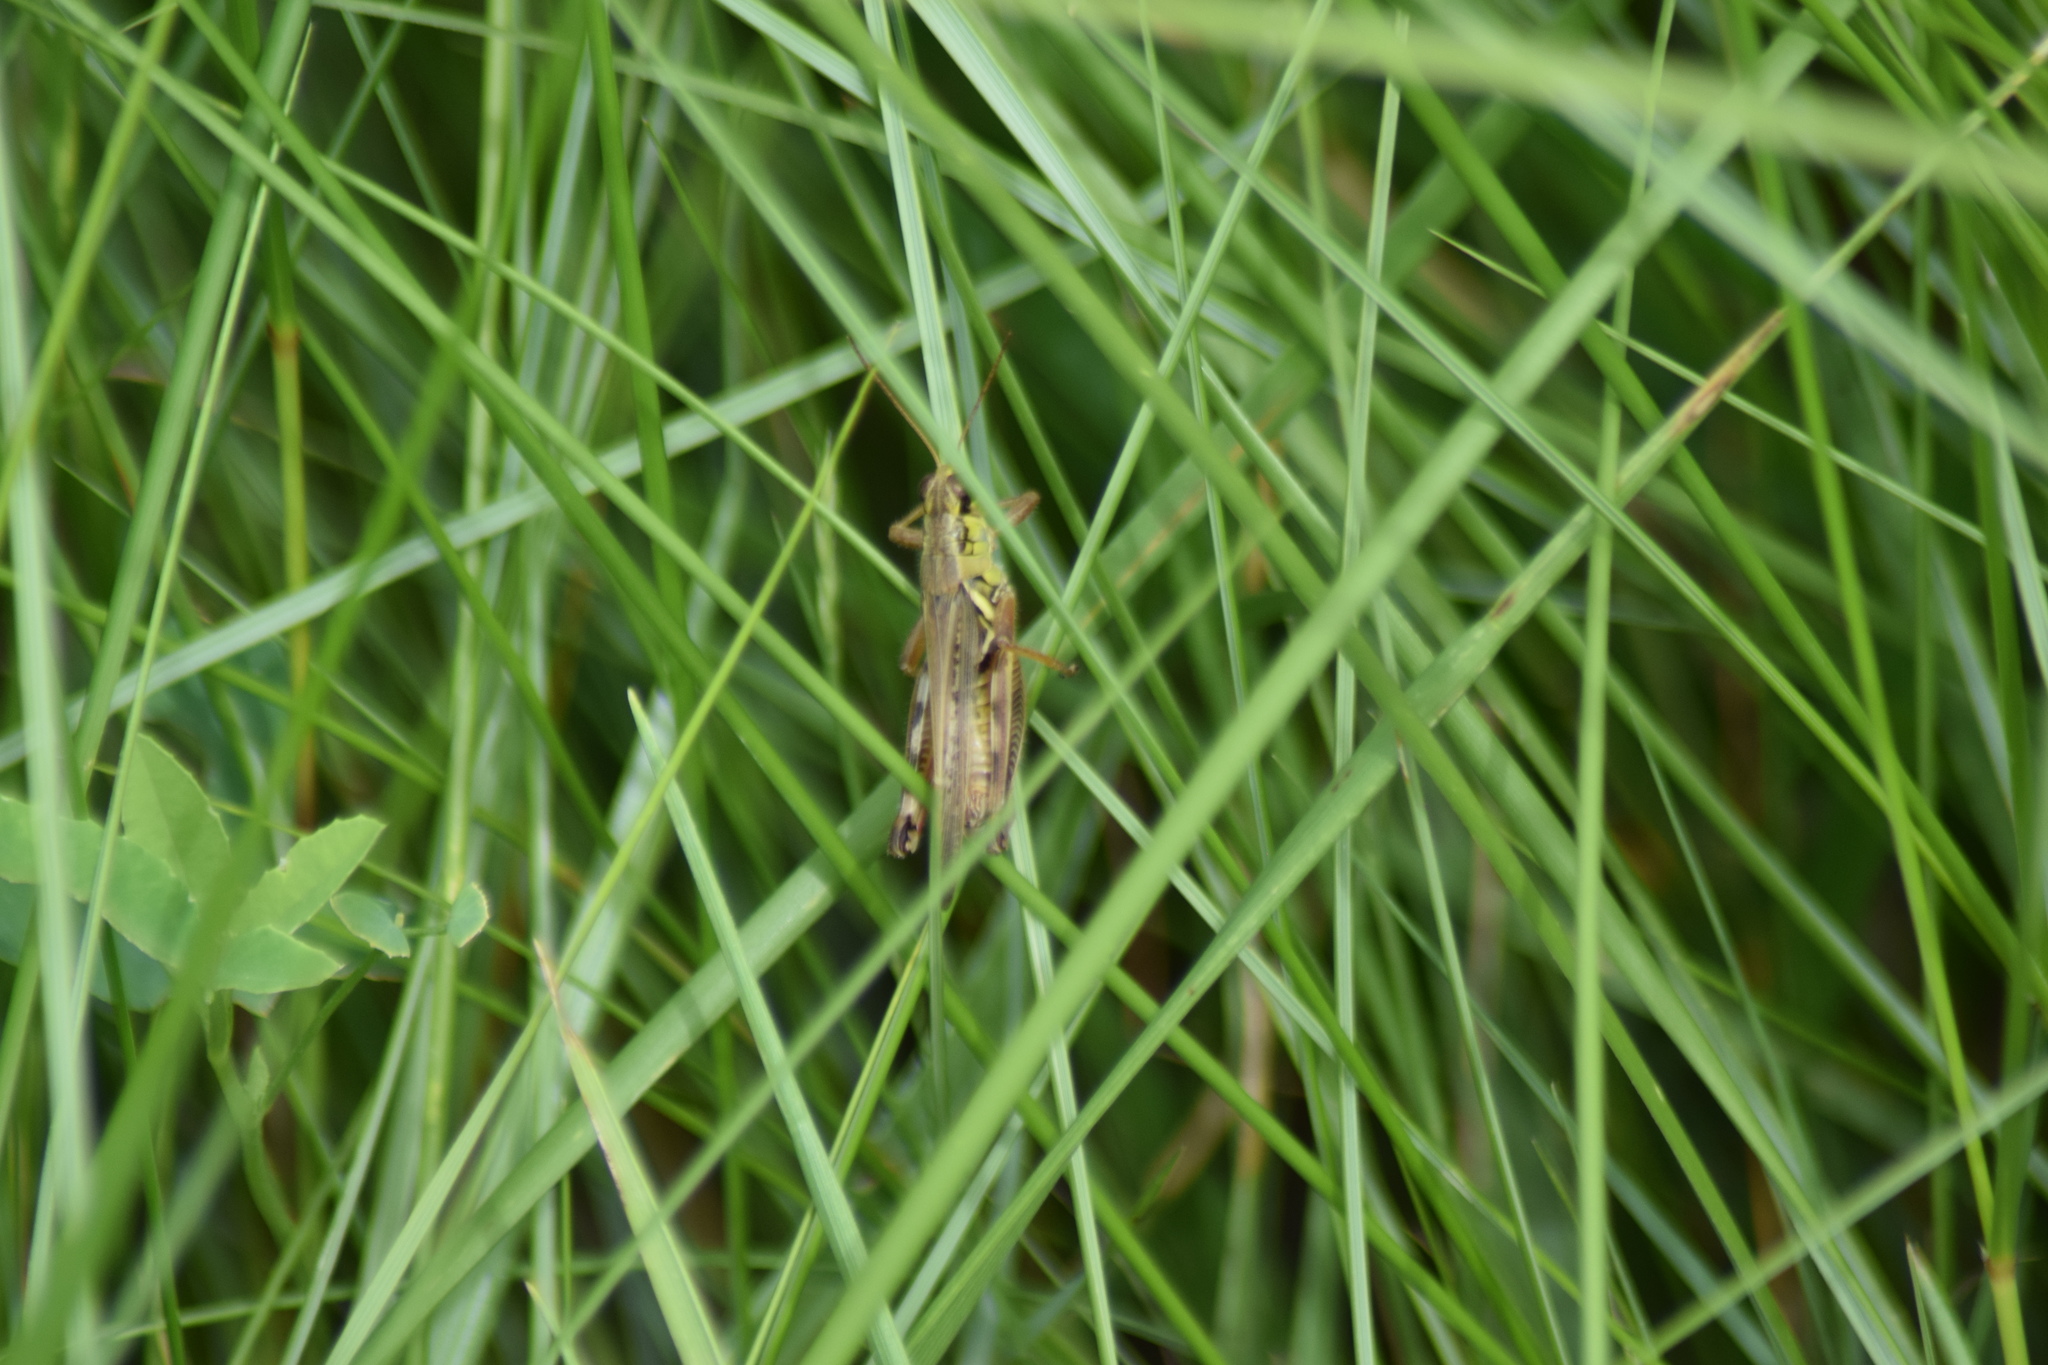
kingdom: Animalia
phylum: Arthropoda
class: Insecta
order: Orthoptera
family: Acrididae
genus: Melanoplus
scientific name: Melanoplus femurrubrum
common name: Red-legged grasshopper
